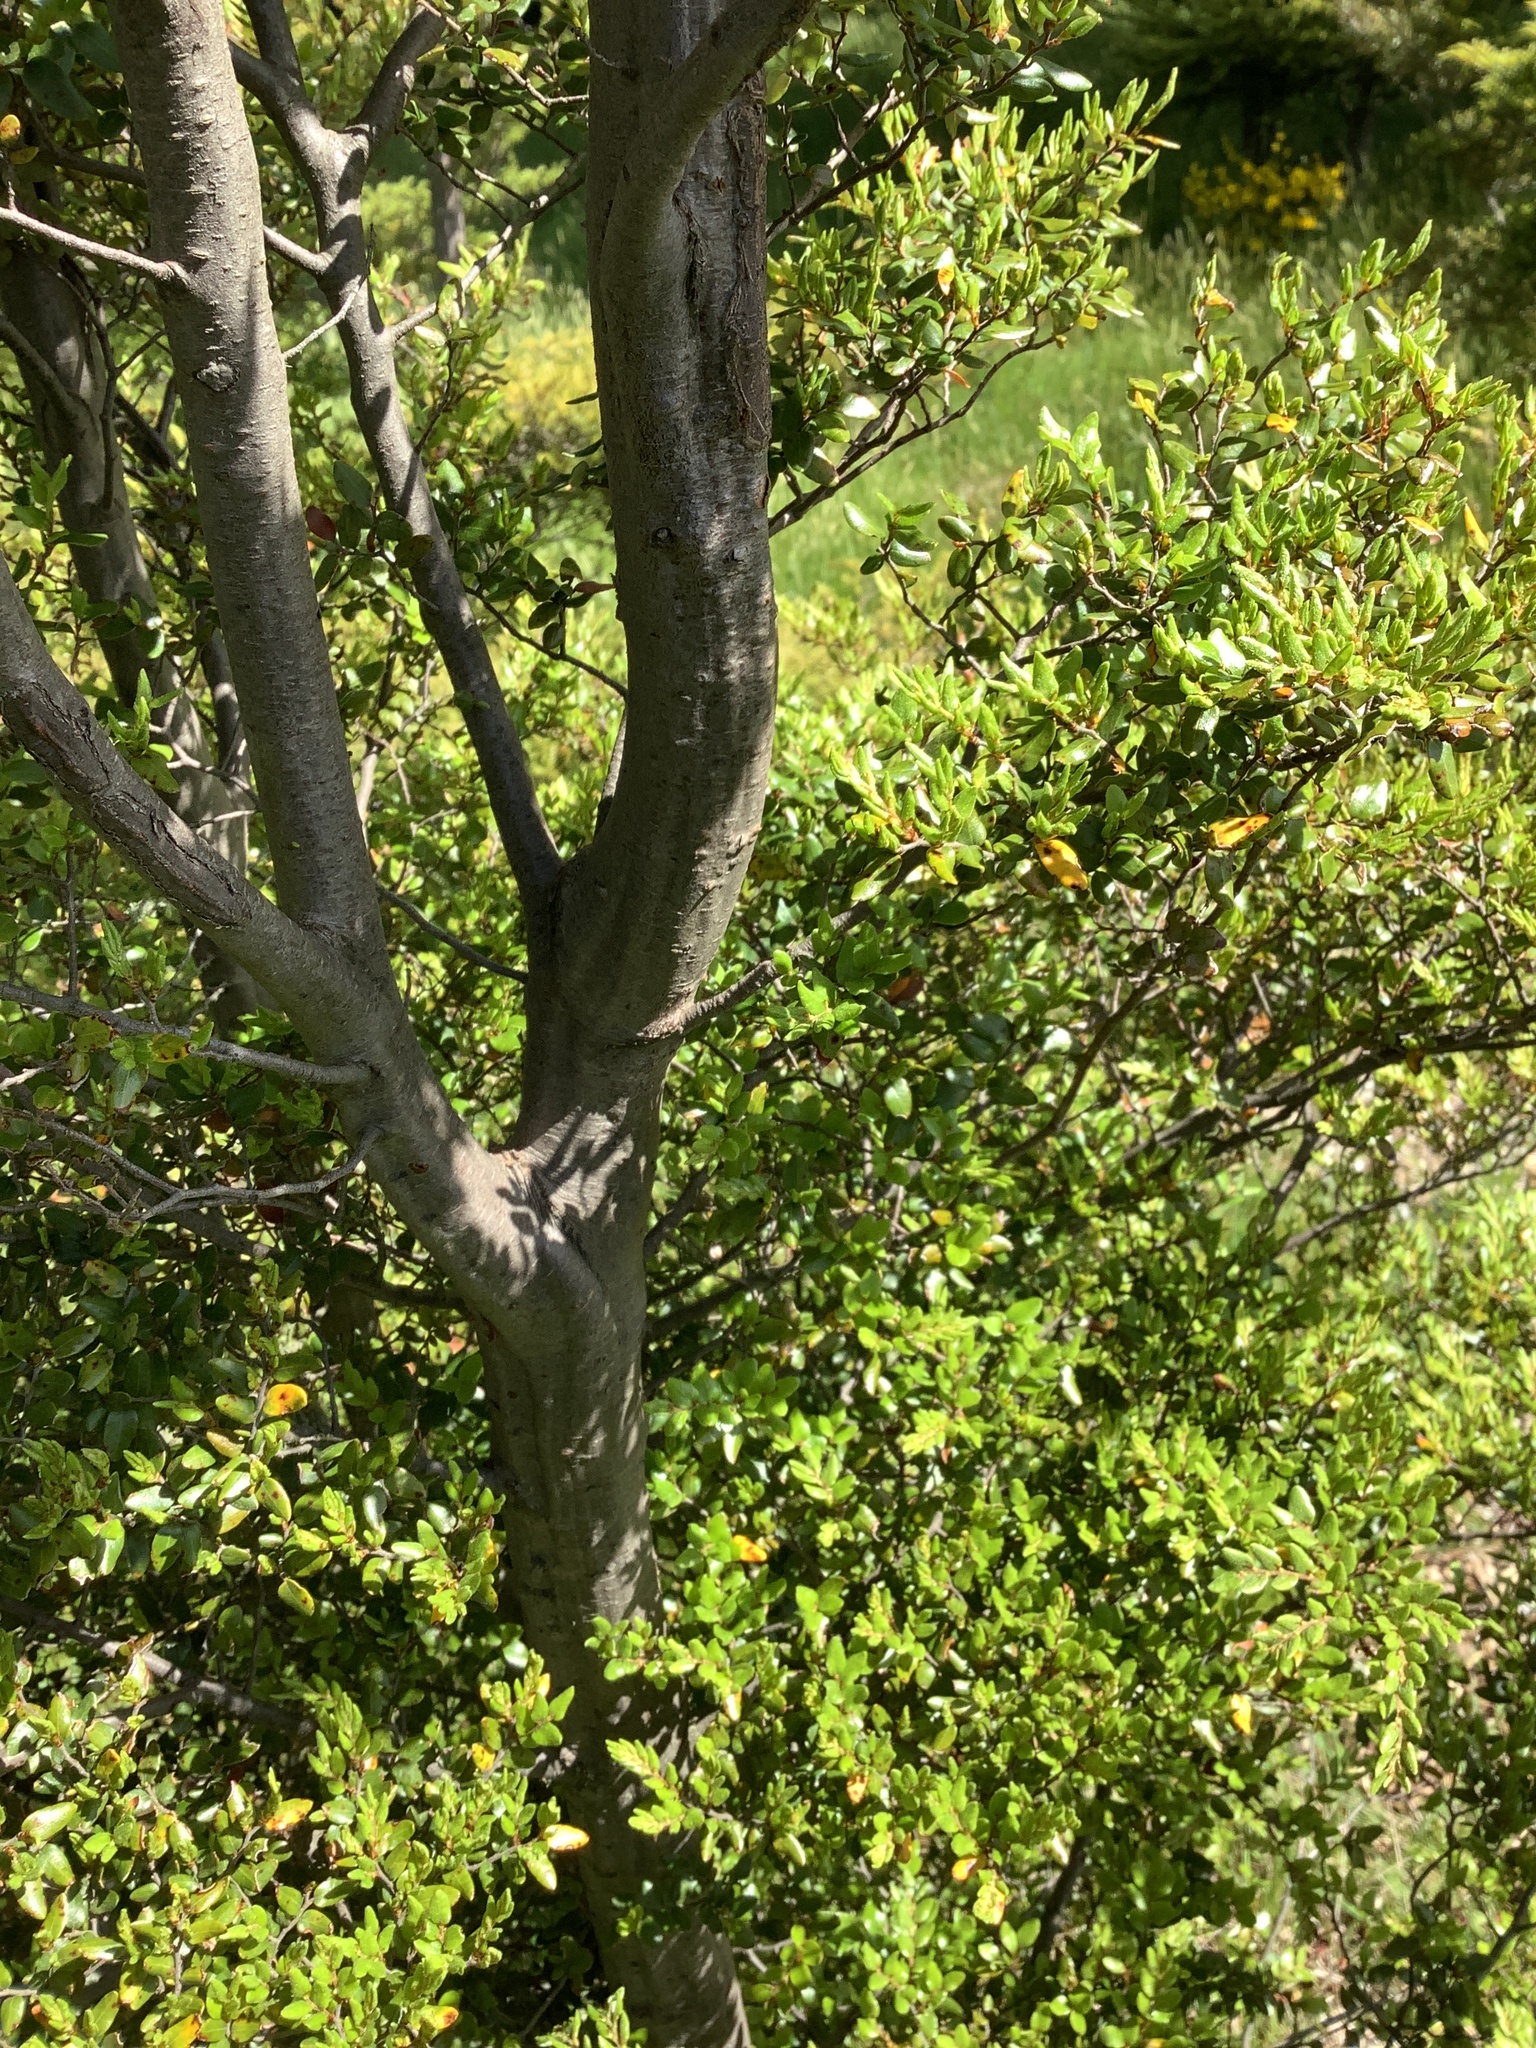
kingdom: Plantae
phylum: Tracheophyta
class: Magnoliopsida
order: Fagales
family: Nothofagaceae
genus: Nothofagus
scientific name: Nothofagus cliffortioides
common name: Mountain beech
